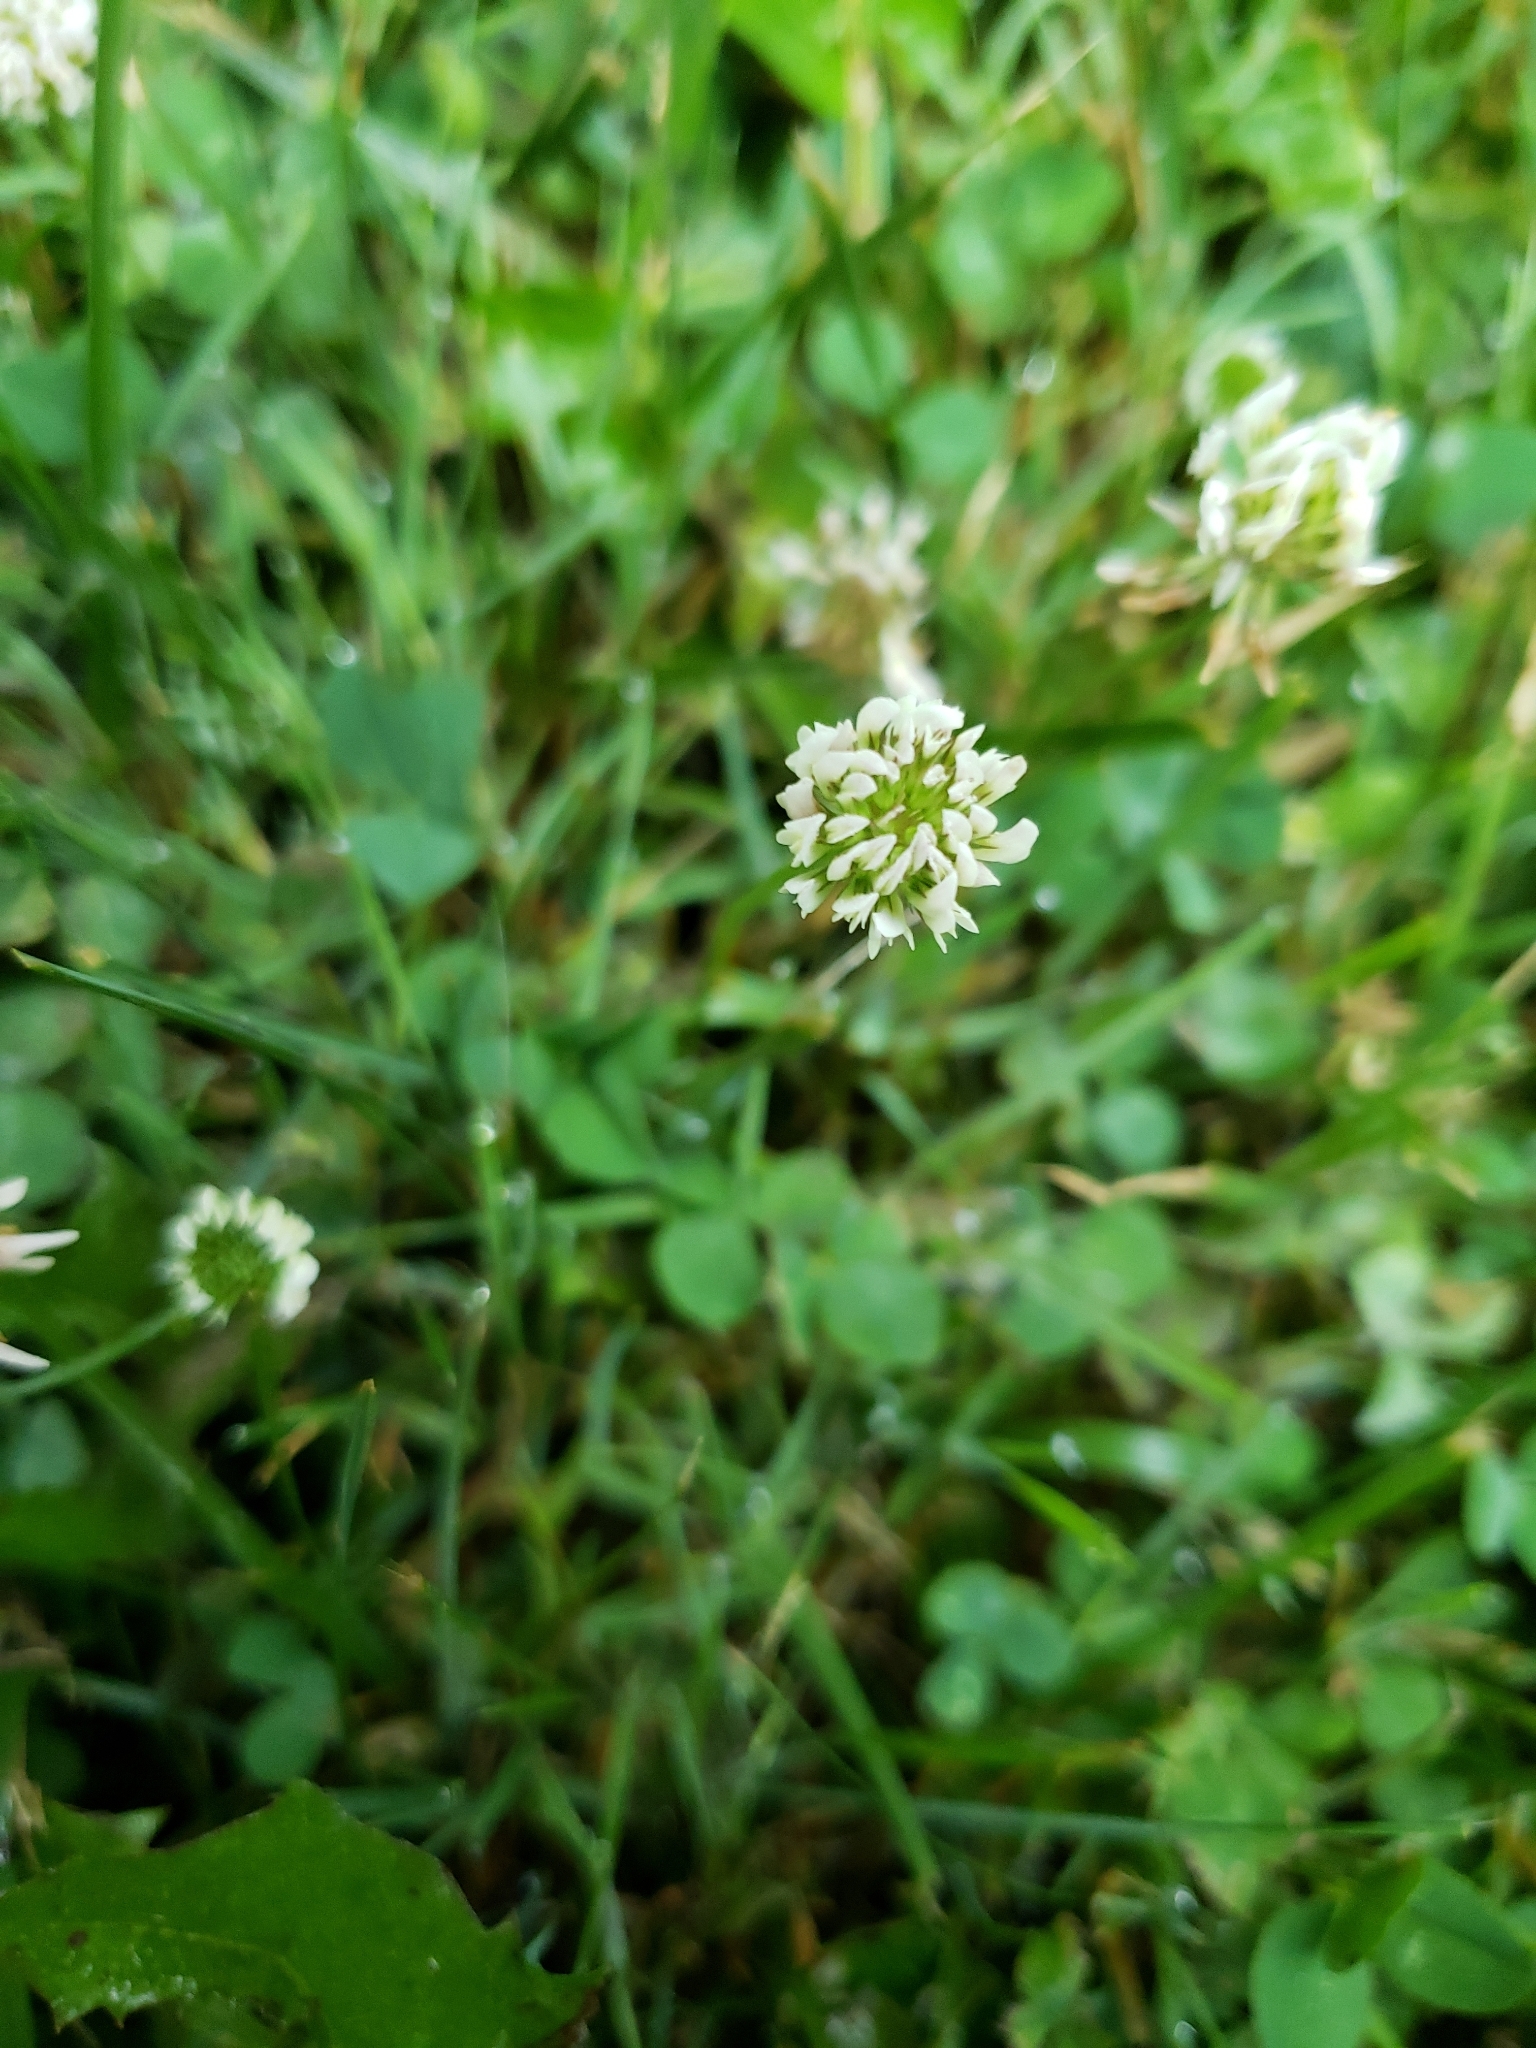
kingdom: Plantae
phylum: Tracheophyta
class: Magnoliopsida
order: Fabales
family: Fabaceae
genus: Trifolium
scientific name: Trifolium repens
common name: White clover
